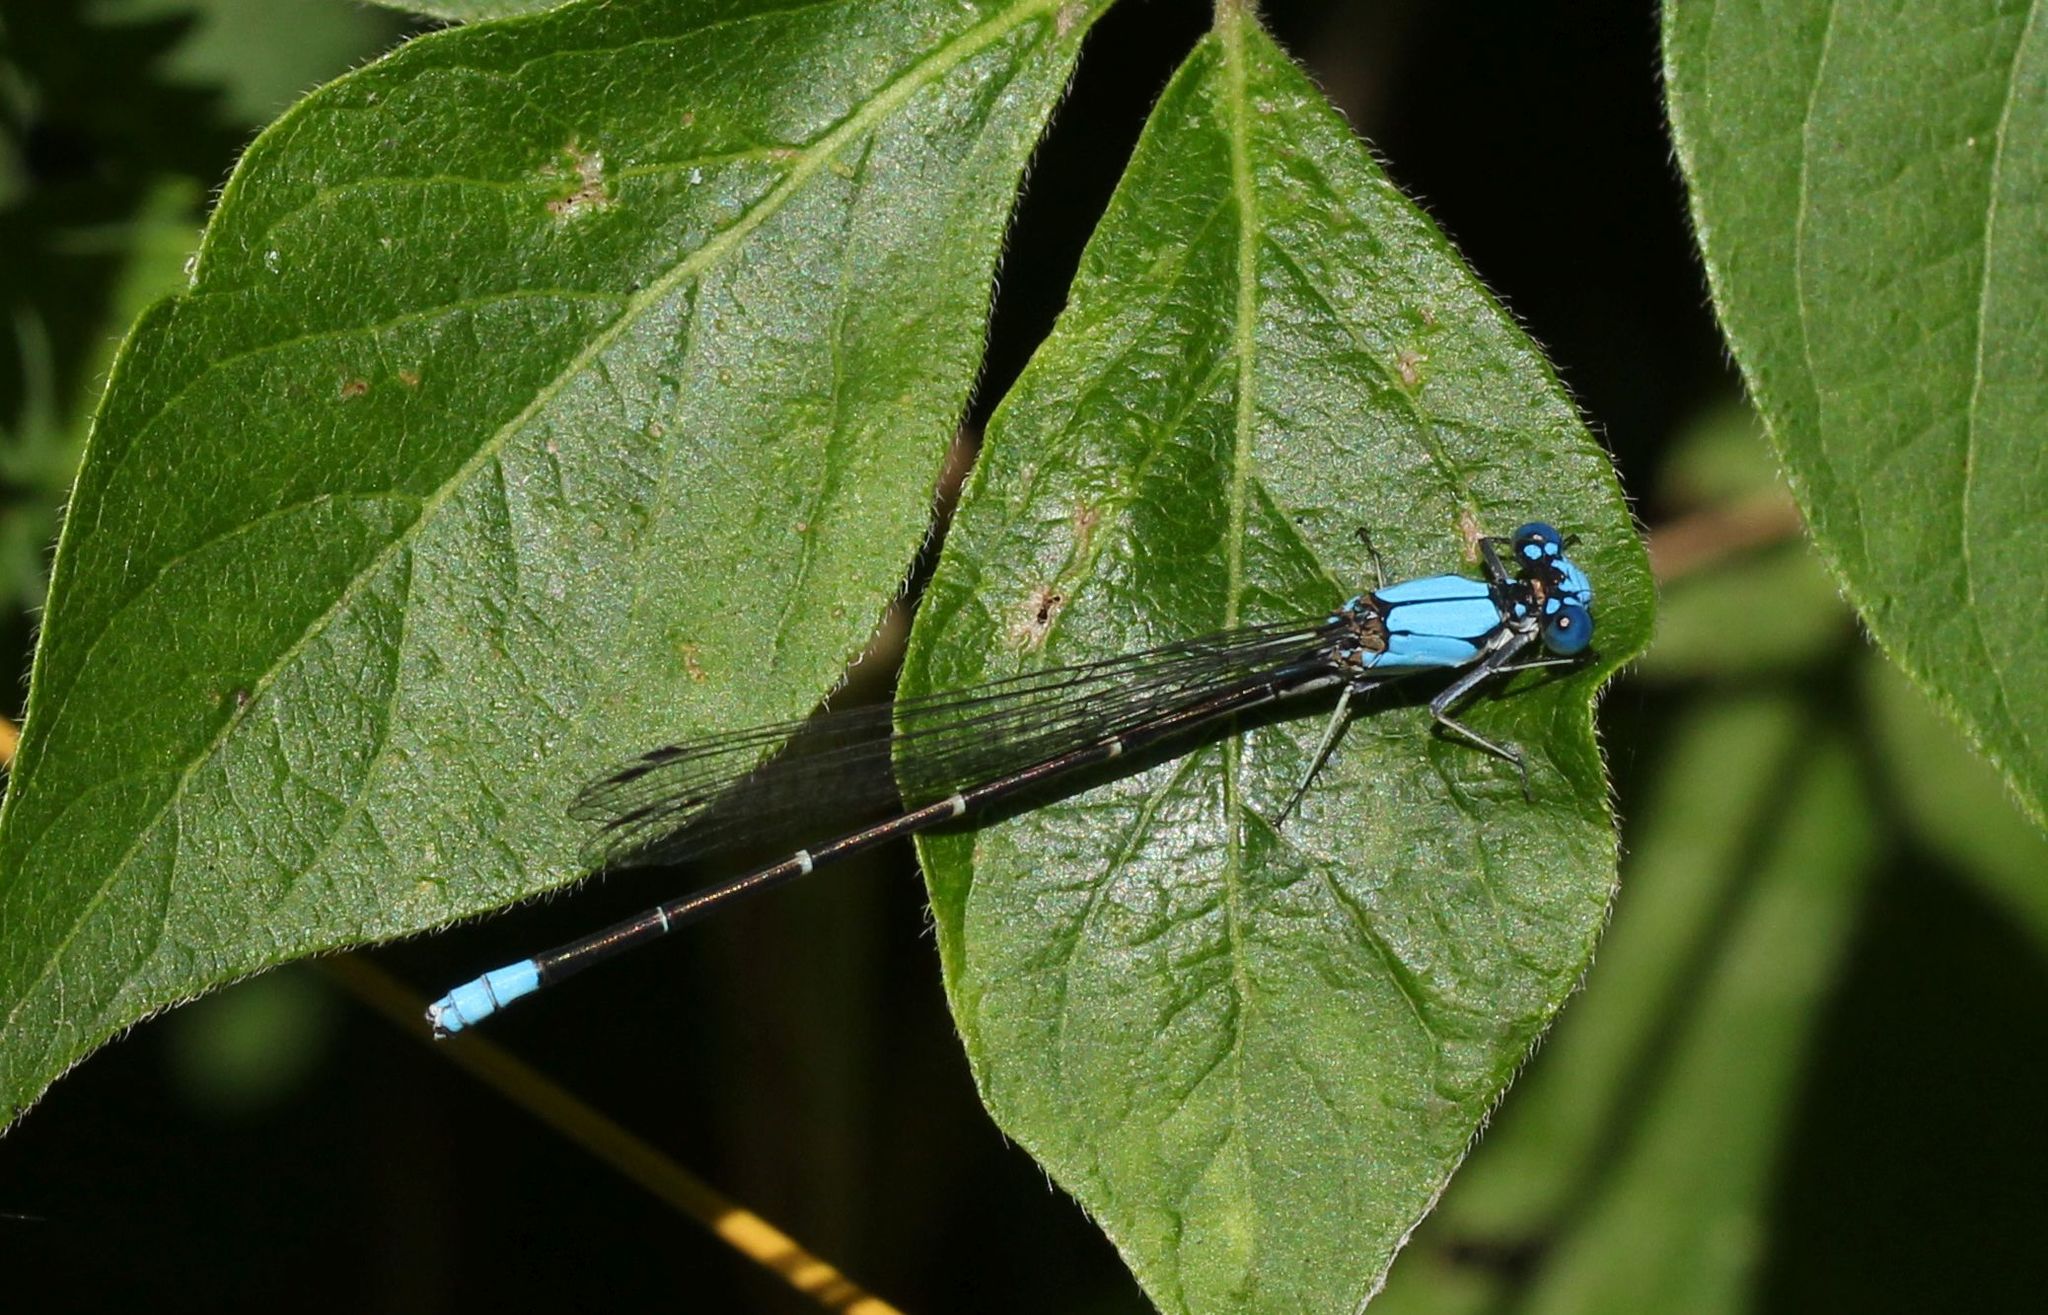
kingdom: Animalia
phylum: Arthropoda
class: Insecta
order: Odonata
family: Coenagrionidae
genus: Argia
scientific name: Argia apicalis
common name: Blue-fronted dancer
